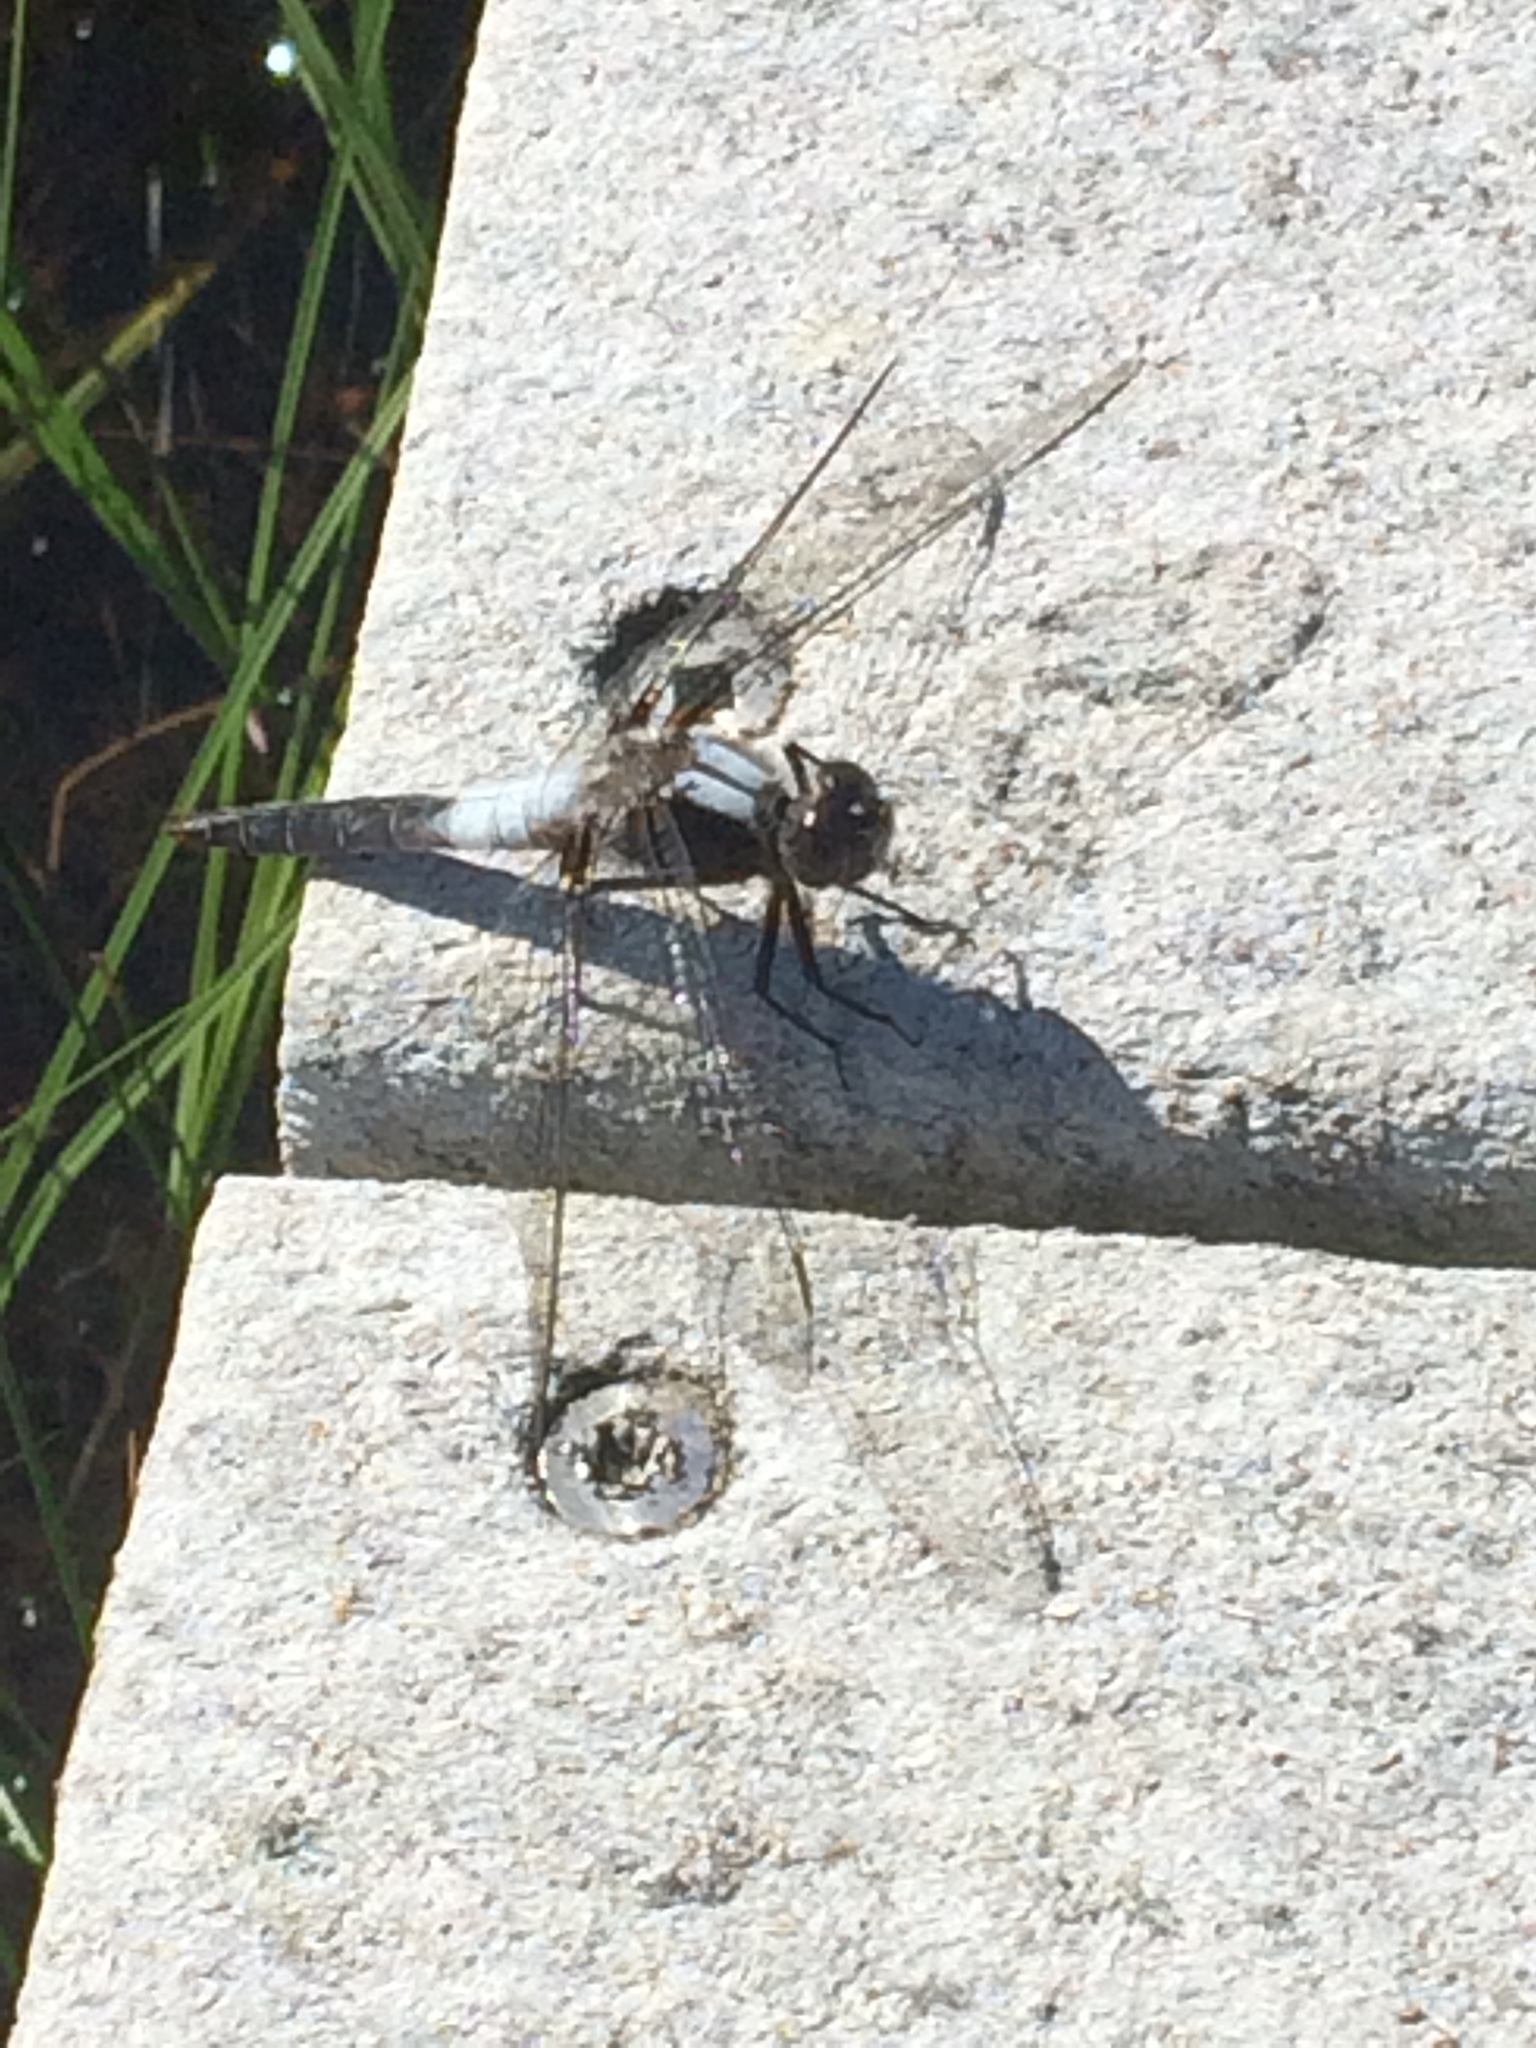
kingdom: Animalia
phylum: Arthropoda
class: Insecta
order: Odonata
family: Libellulidae
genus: Ladona
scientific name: Ladona julia
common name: Chalk-fronted corporal
